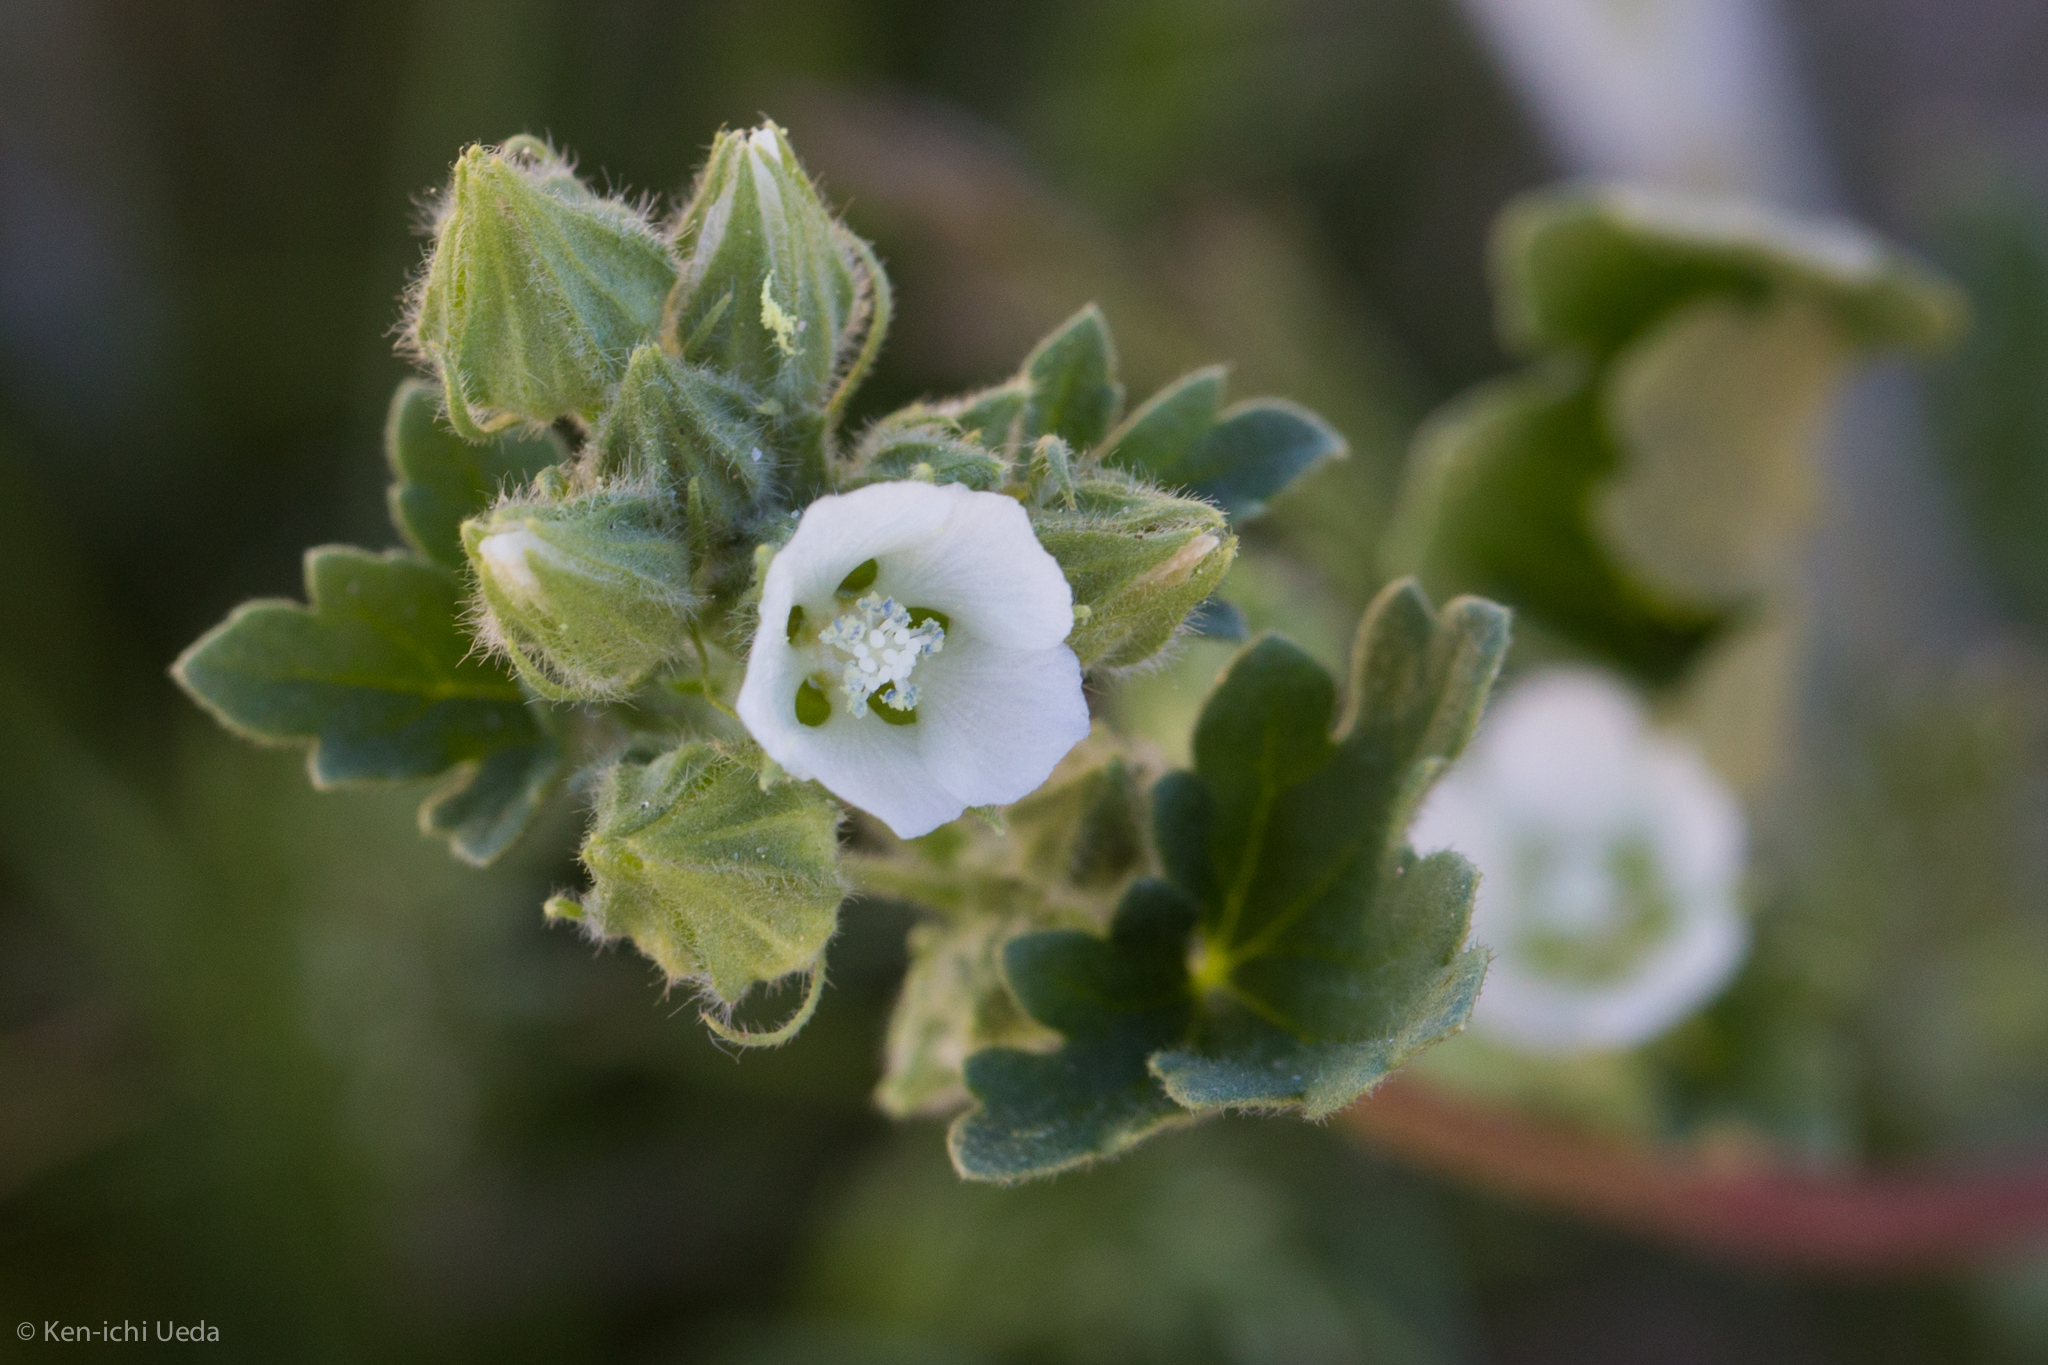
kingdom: Plantae
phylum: Tracheophyta
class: Magnoliopsida
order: Malvales
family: Malvaceae
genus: Eremalche
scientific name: Eremalche exilis
